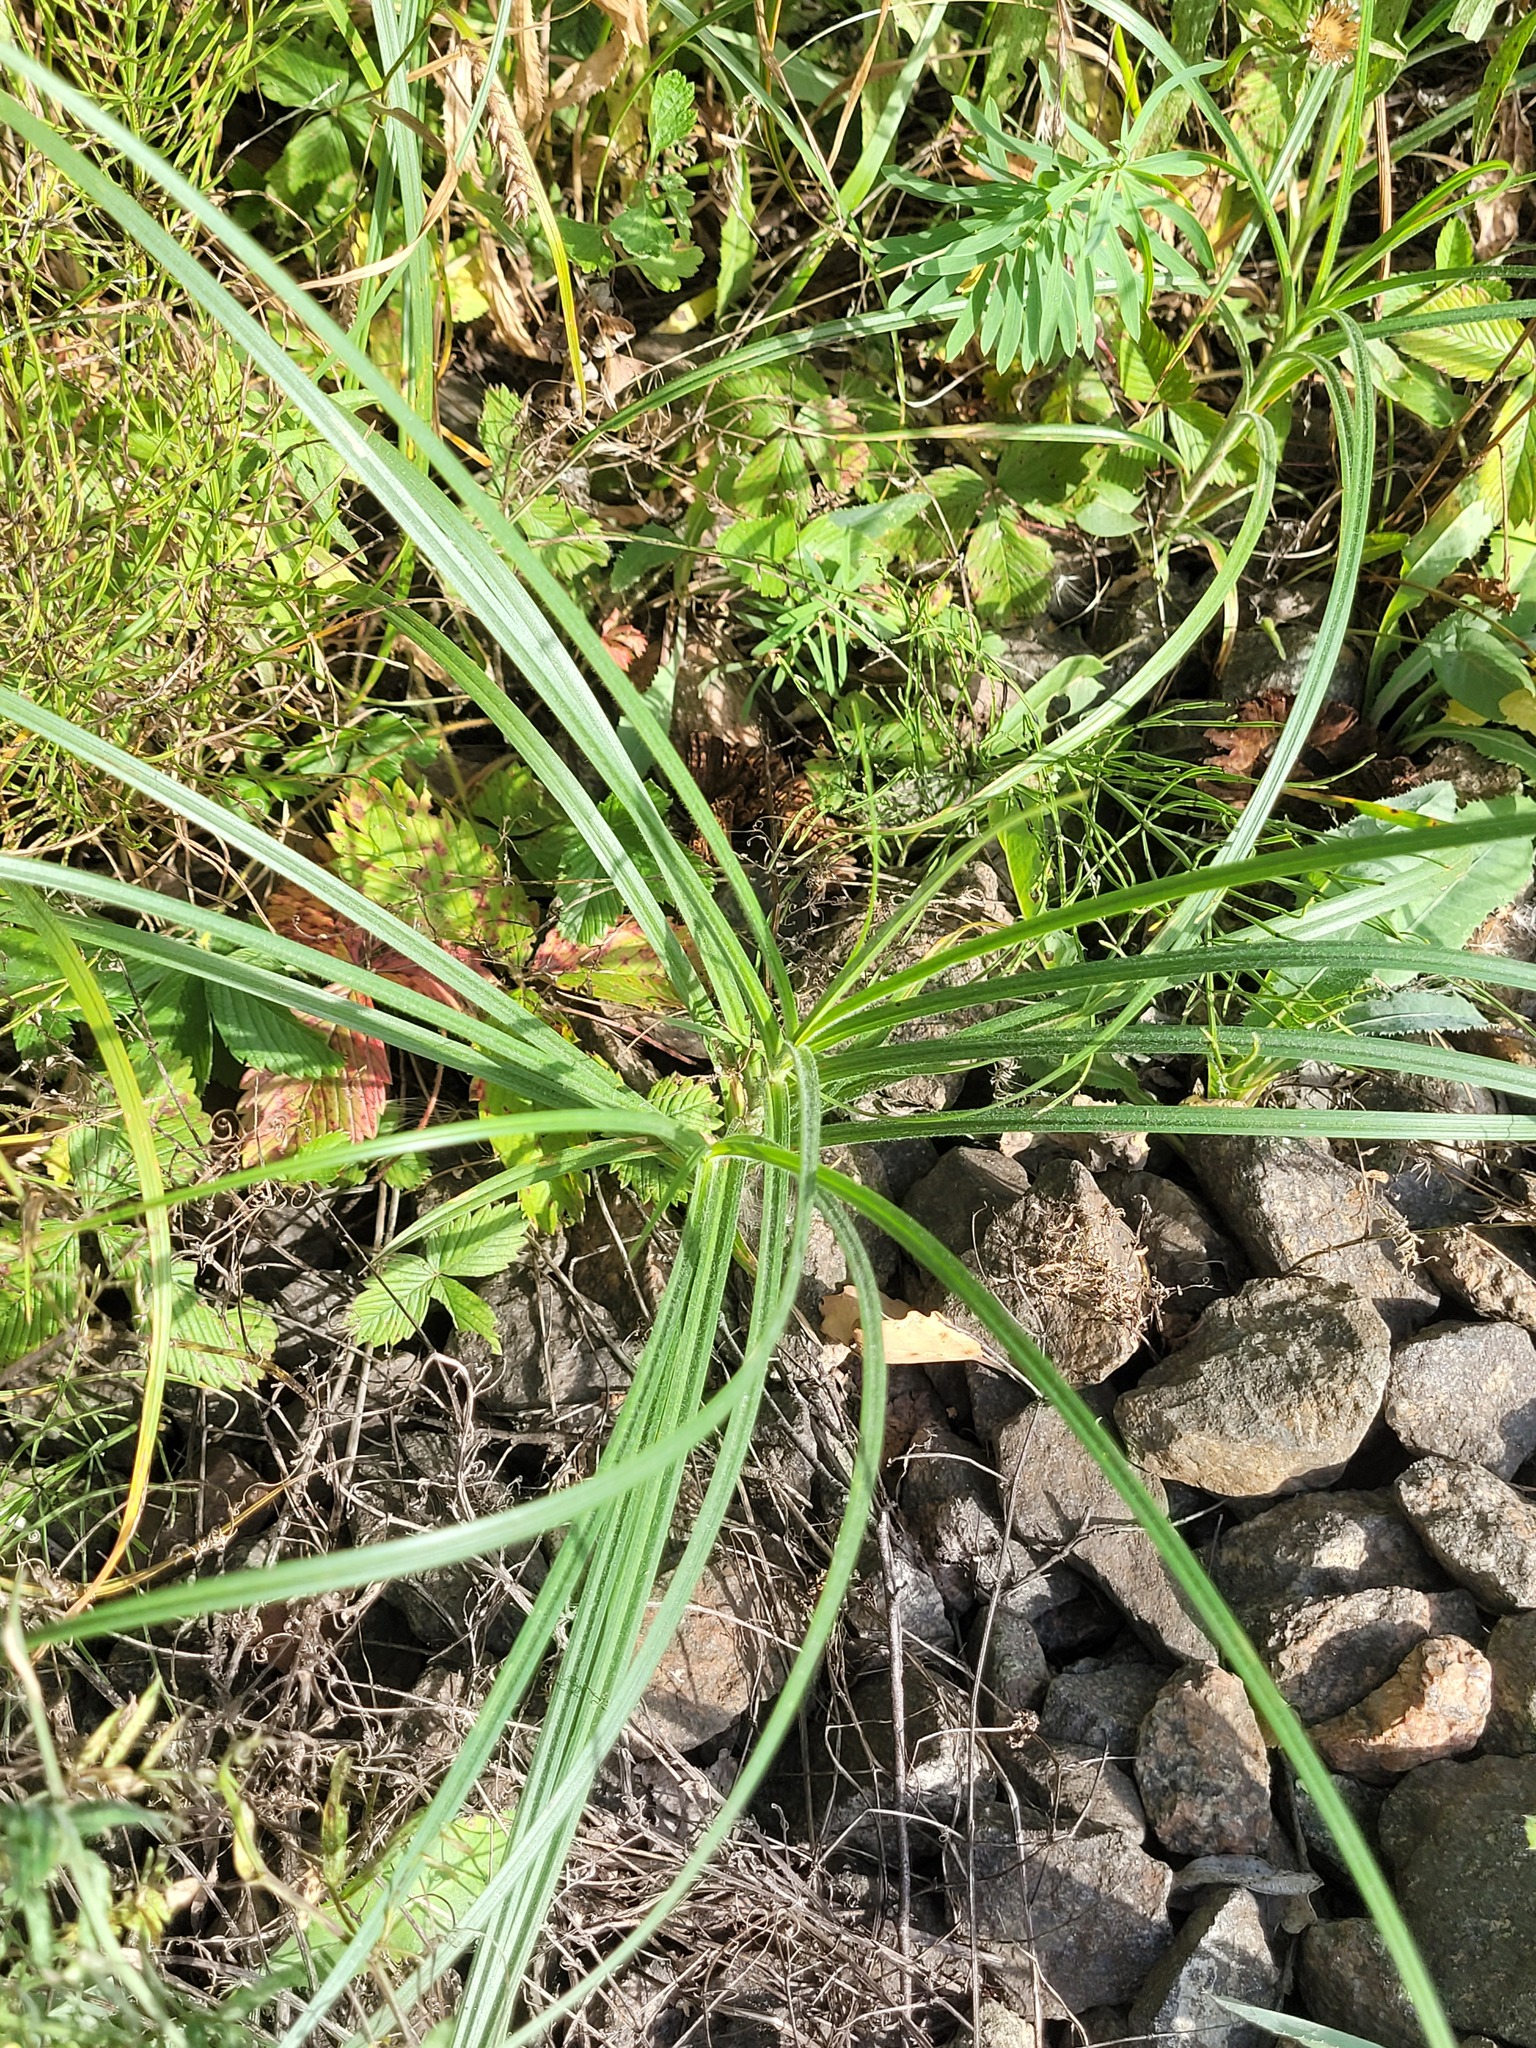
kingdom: Plantae
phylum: Tracheophyta
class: Liliopsida
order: Poales
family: Cyperaceae
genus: Carex
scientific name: Carex hirta
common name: Hairy sedge
